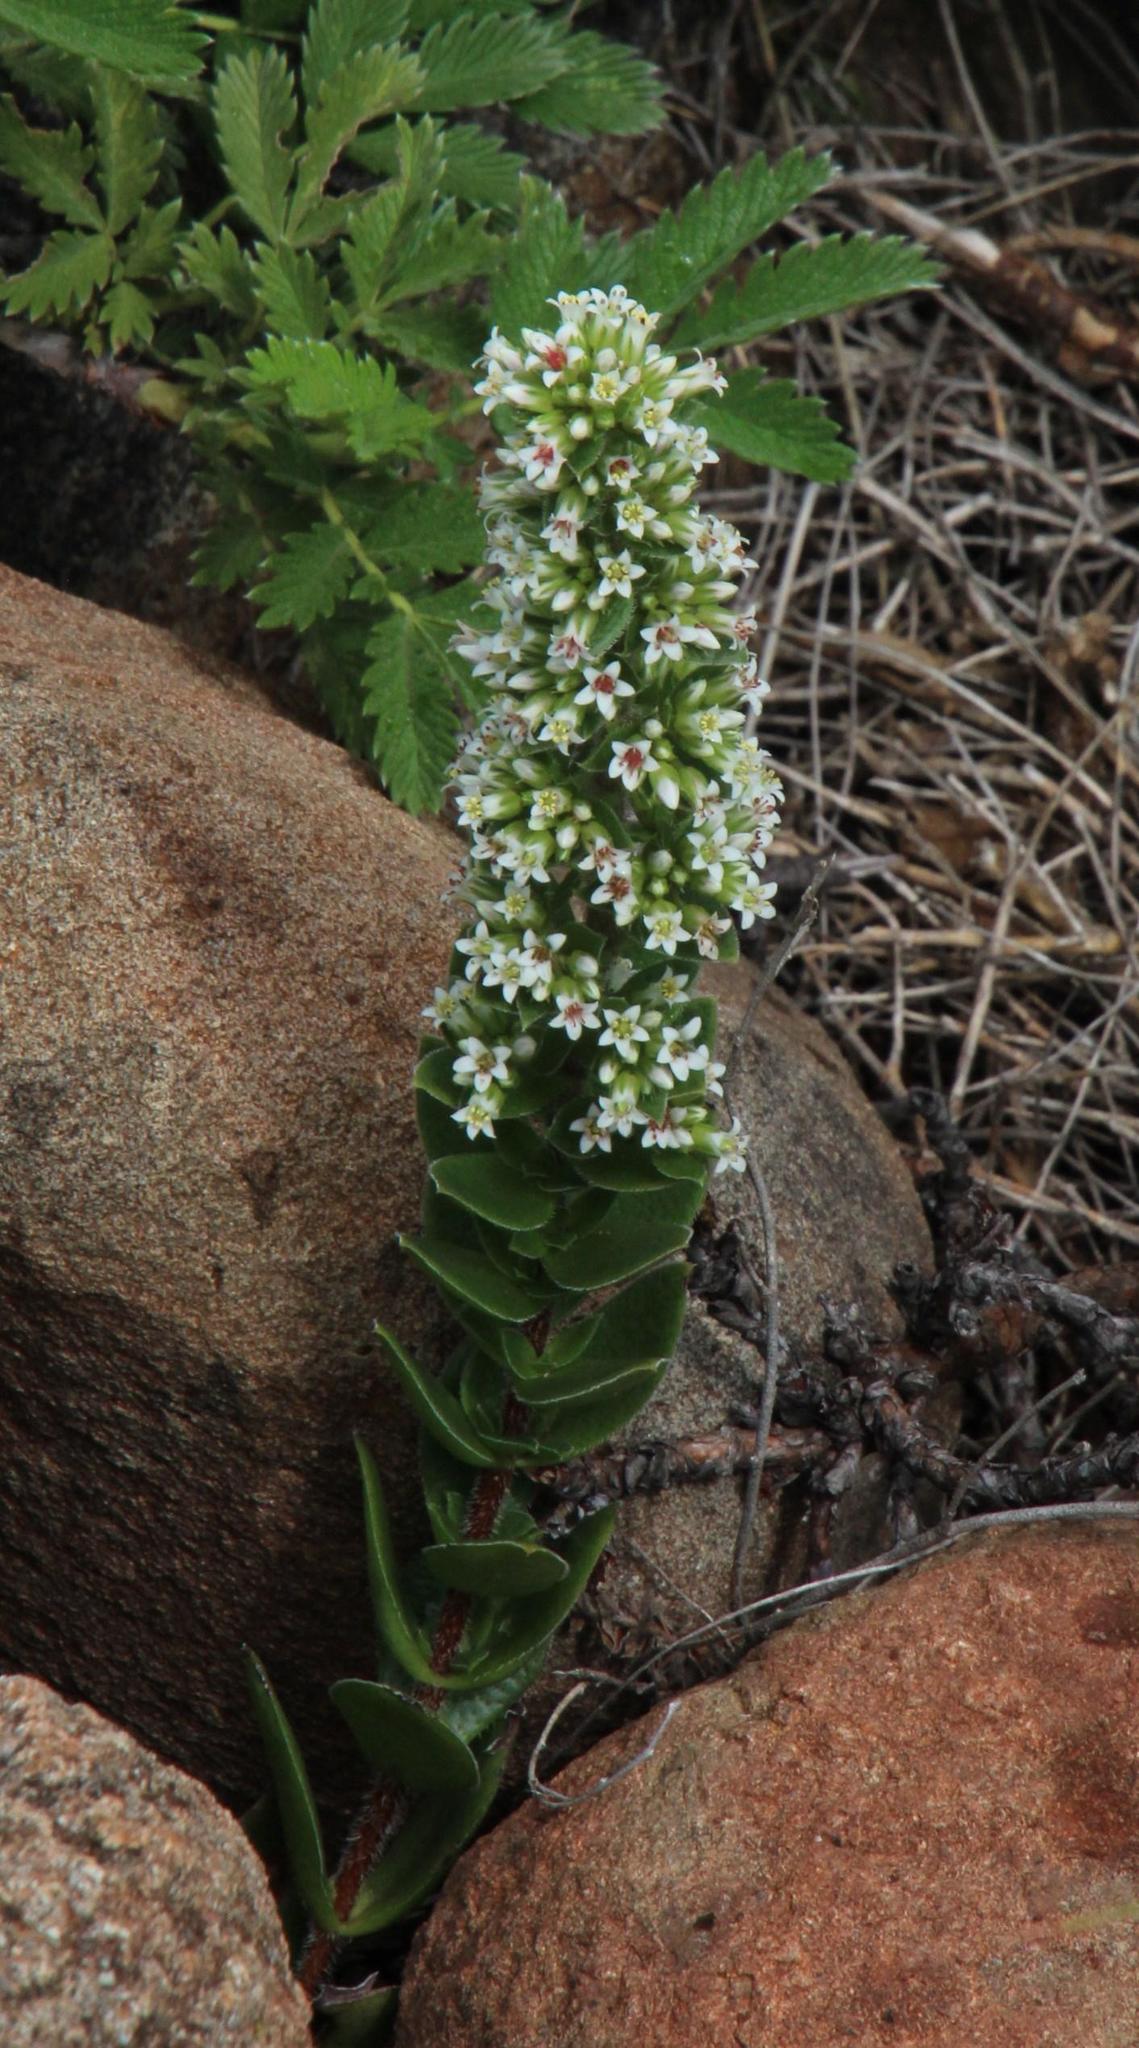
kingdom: Plantae
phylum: Tracheophyta
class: Magnoliopsida
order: Saxifragales
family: Crassulaceae
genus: Crassula
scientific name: Crassula obovata
